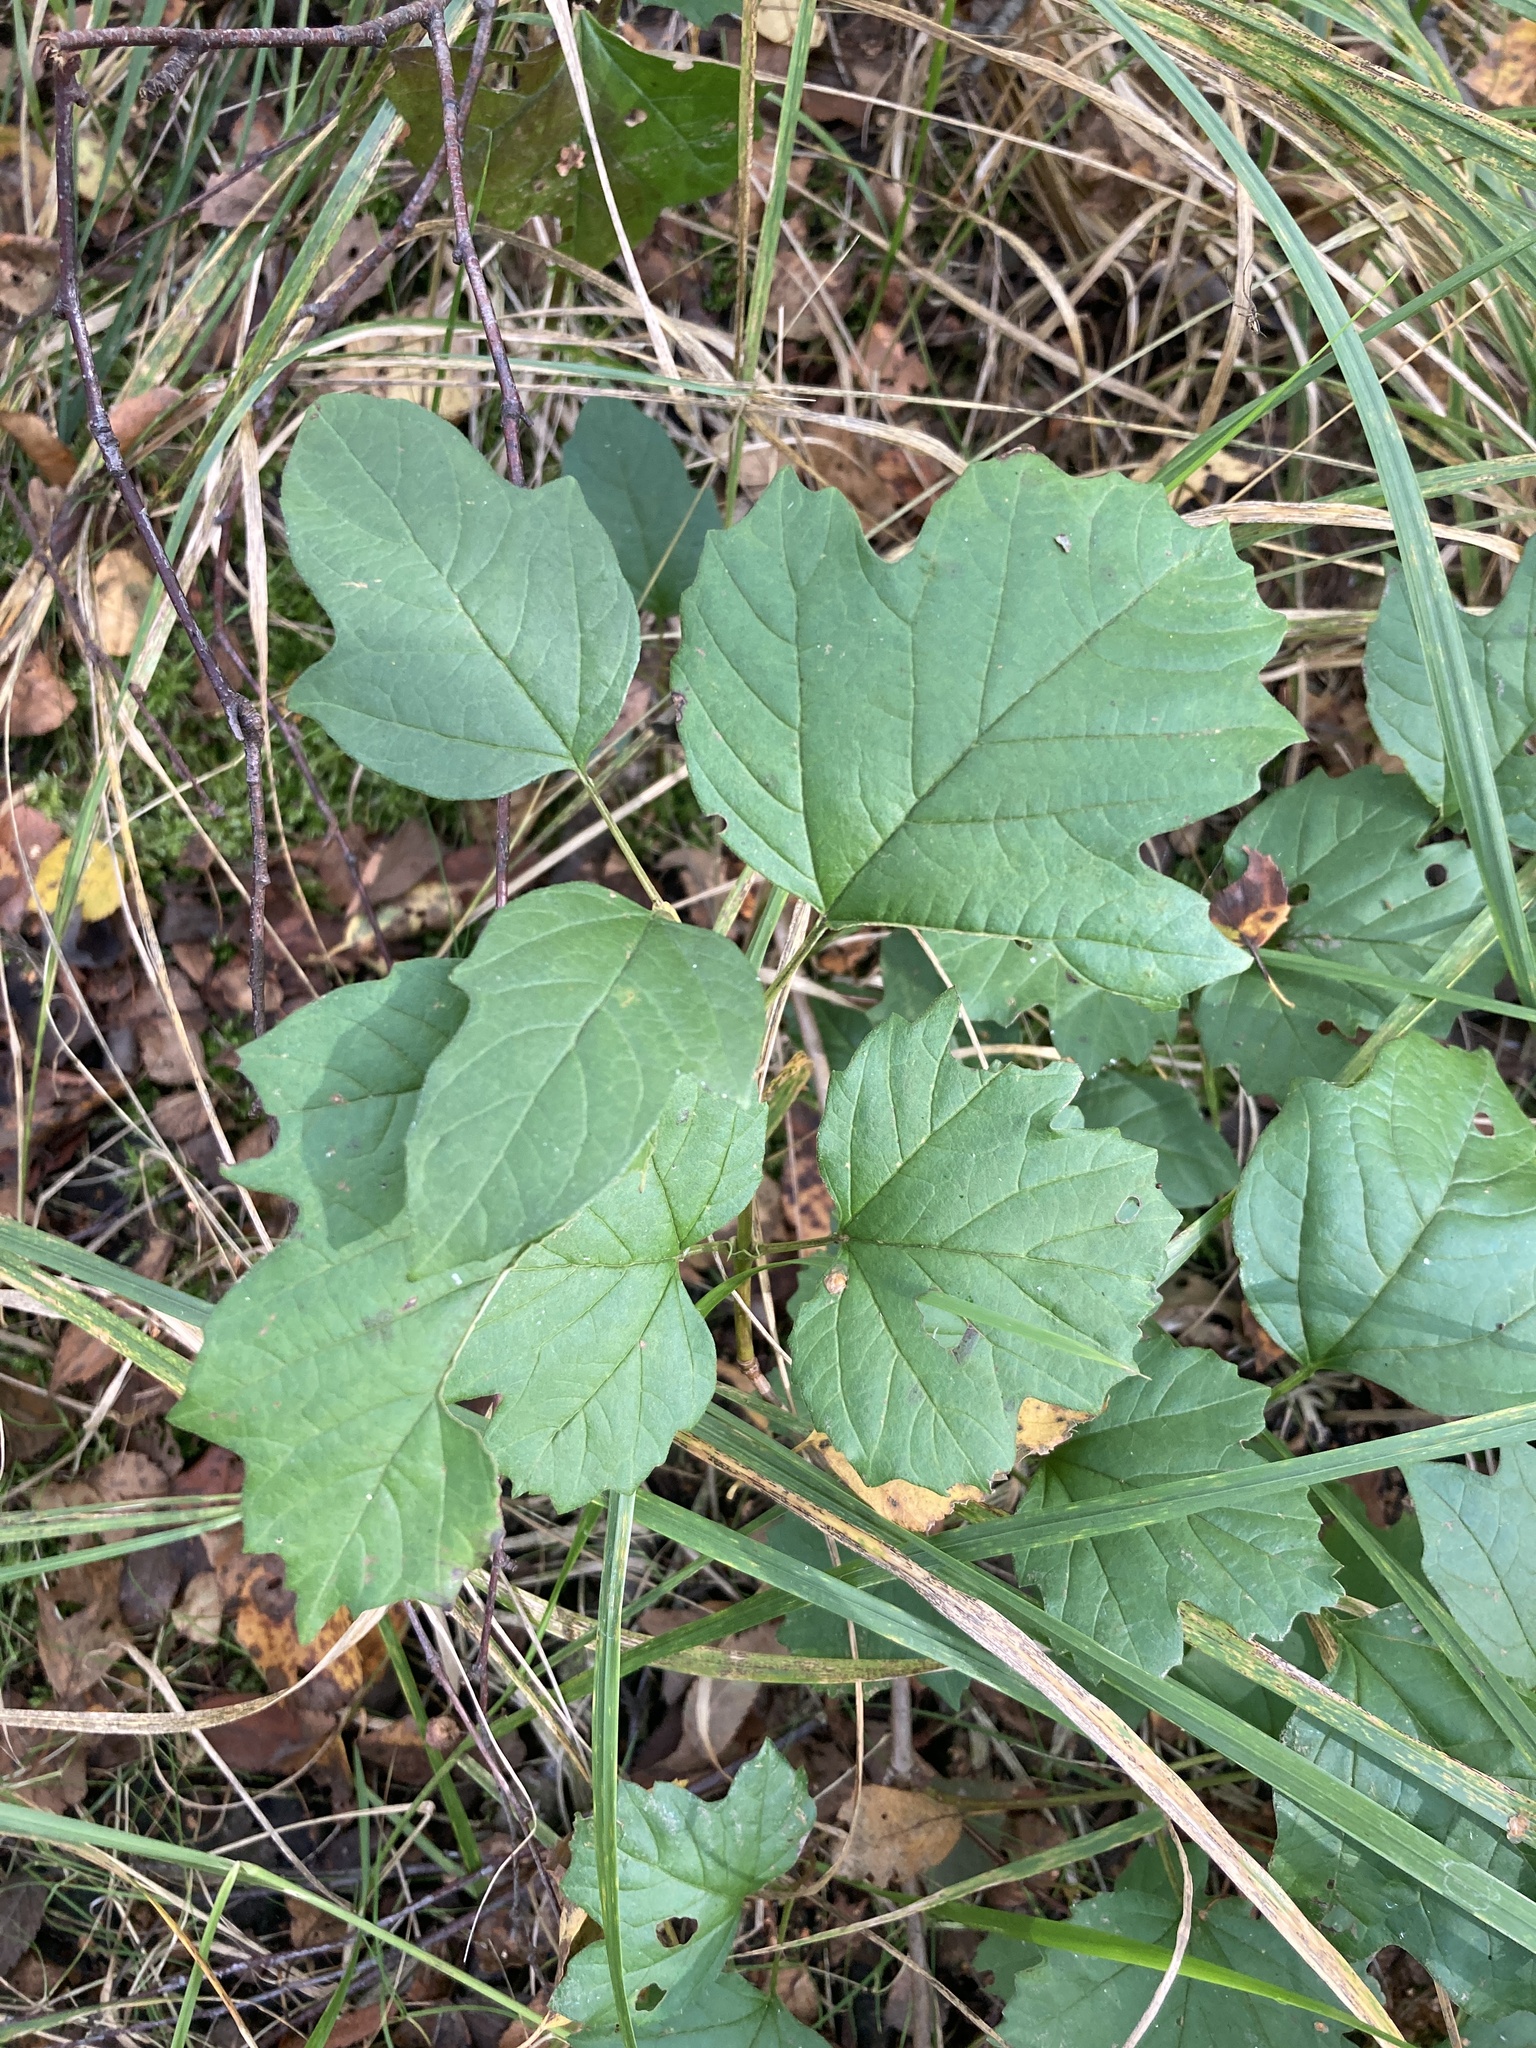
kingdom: Plantae
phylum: Tracheophyta
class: Magnoliopsida
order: Dipsacales
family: Viburnaceae
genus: Viburnum
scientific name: Viburnum opulus
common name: Guelder-rose
